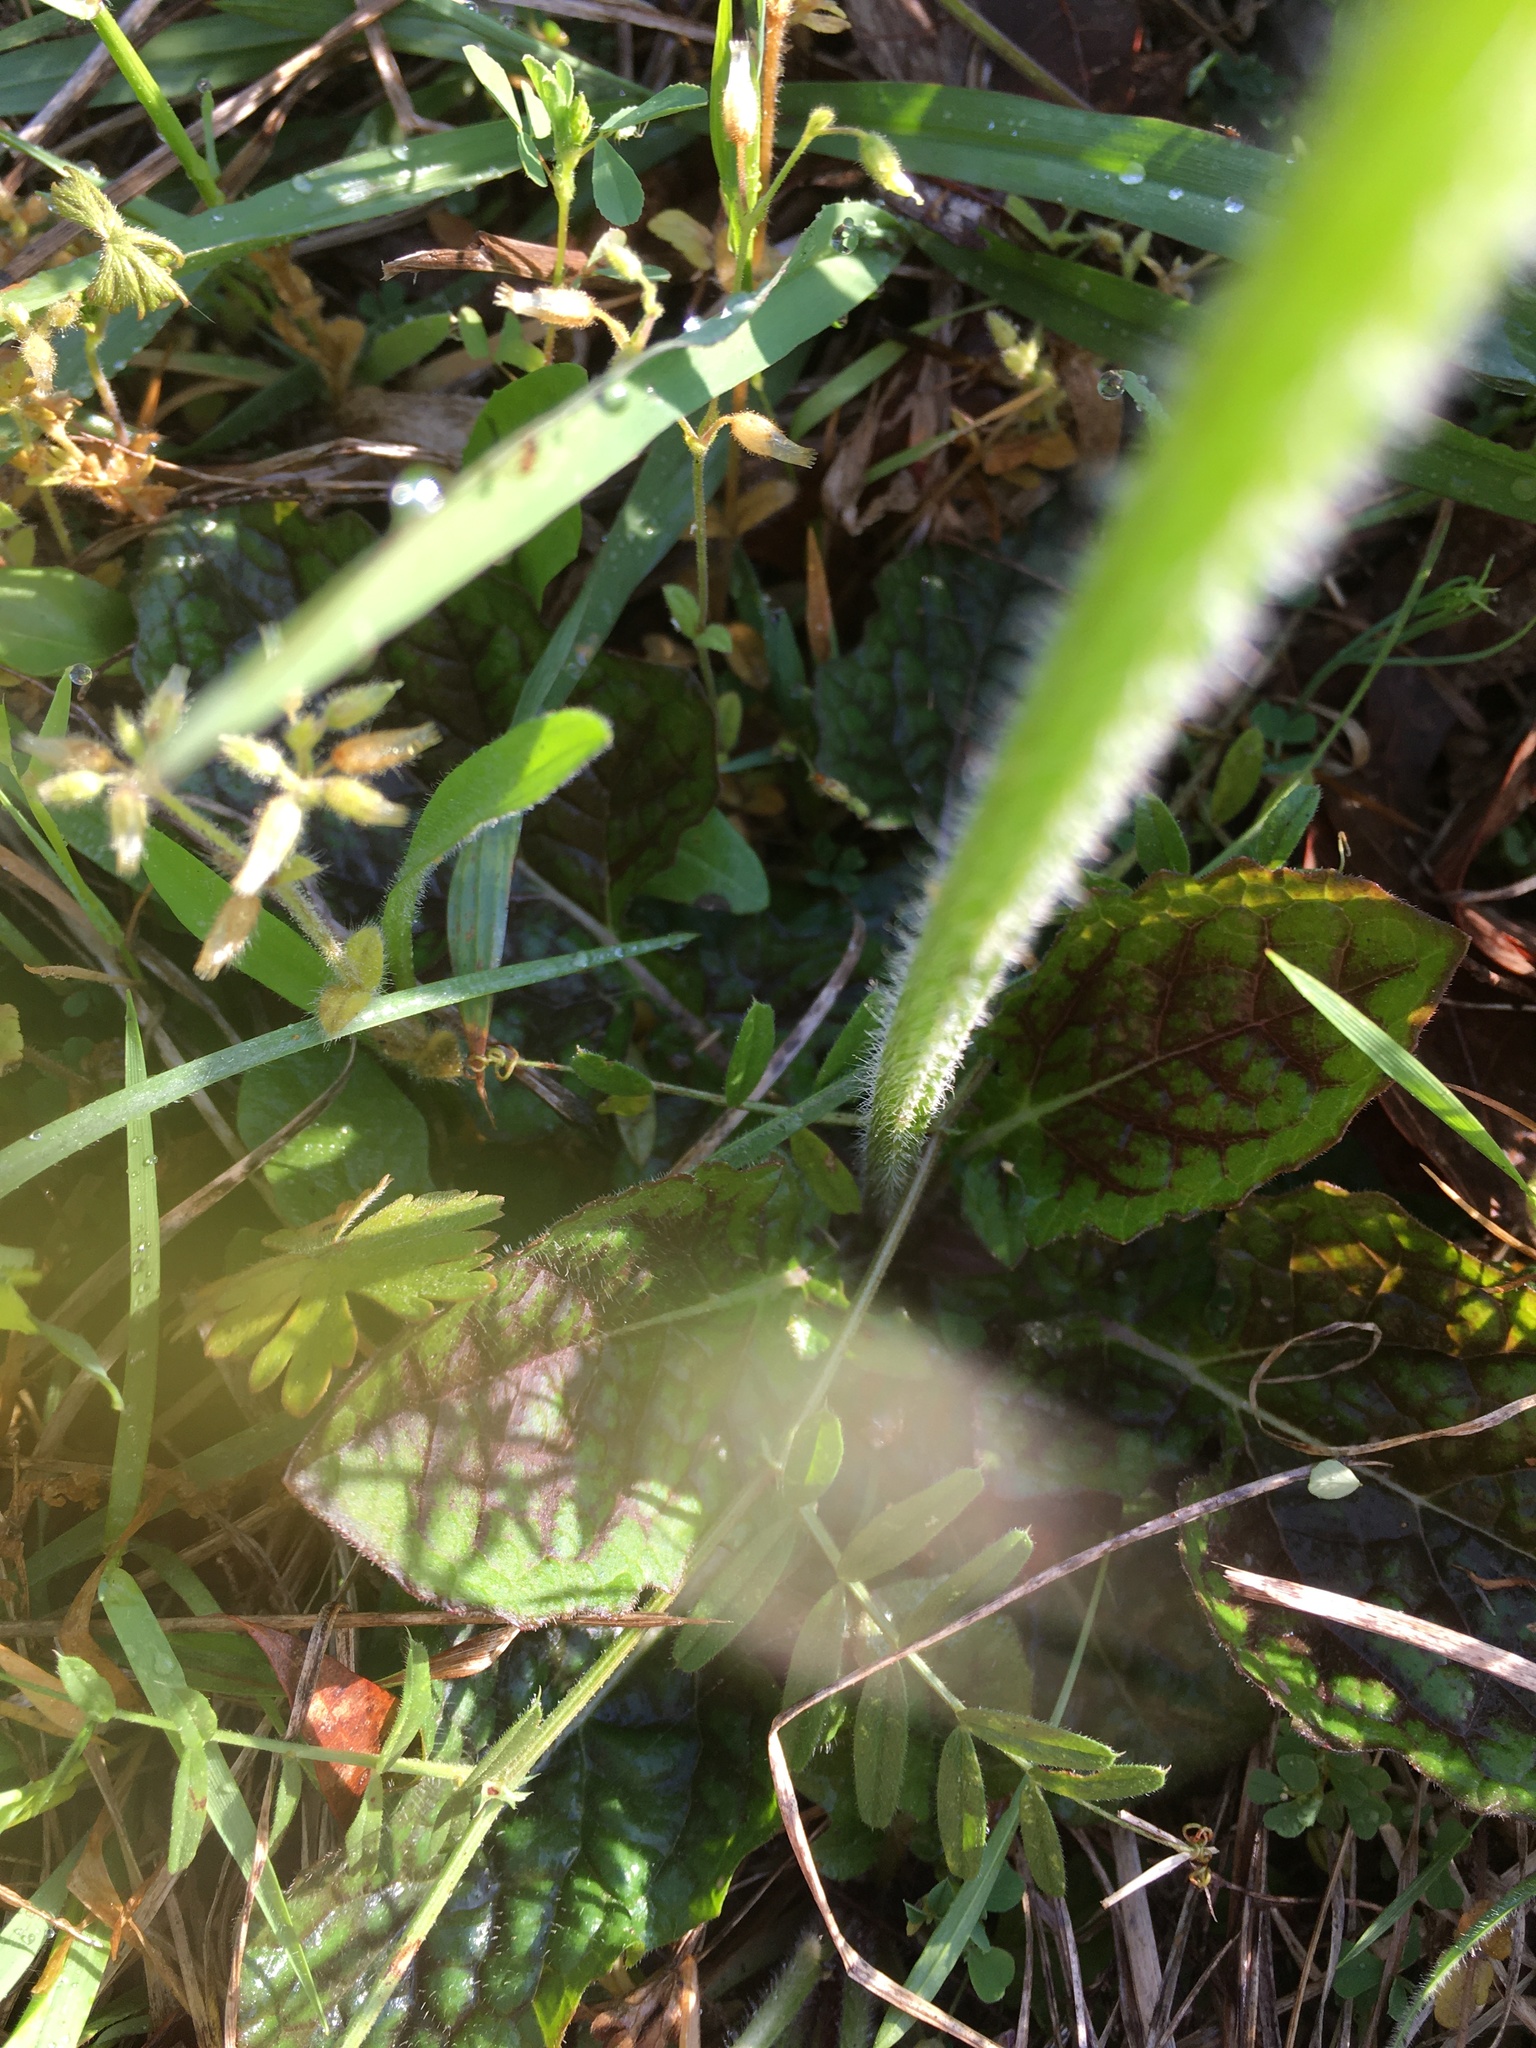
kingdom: Plantae
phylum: Tracheophyta
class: Magnoliopsida
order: Lamiales
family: Lamiaceae
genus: Salvia
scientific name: Salvia lyrata
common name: Cancerweed
